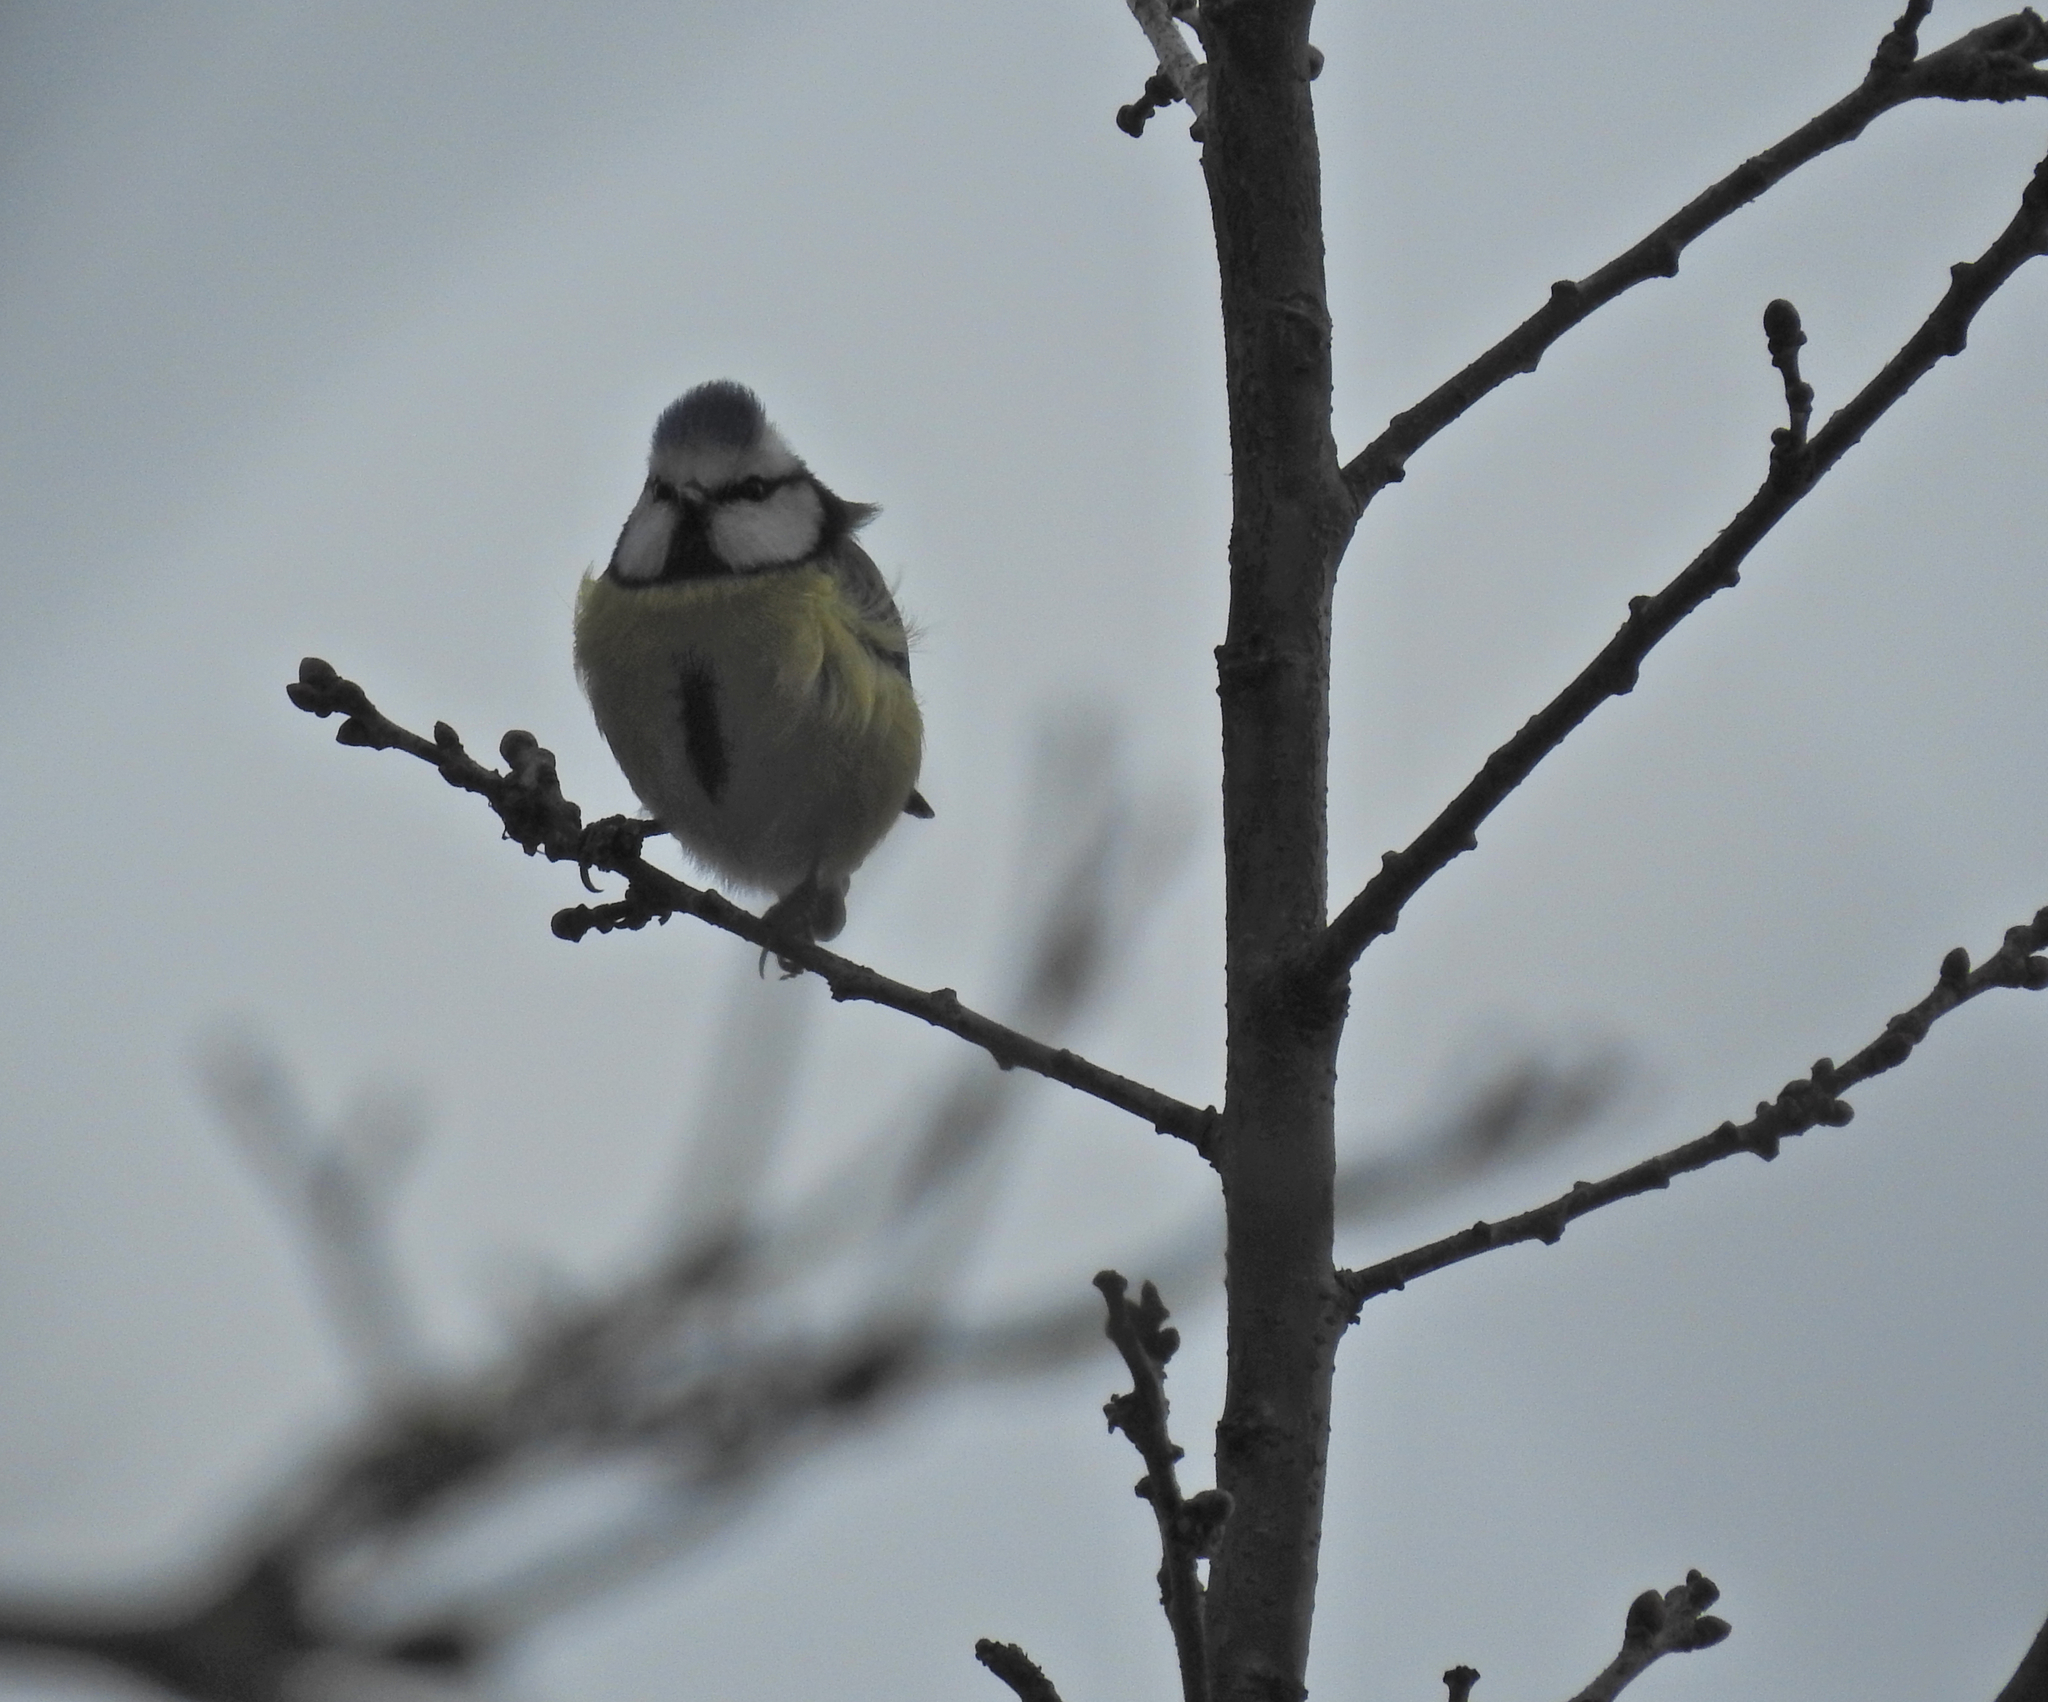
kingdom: Animalia
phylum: Chordata
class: Aves
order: Passeriformes
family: Paridae
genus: Cyanistes
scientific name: Cyanistes caeruleus
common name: Eurasian blue tit
